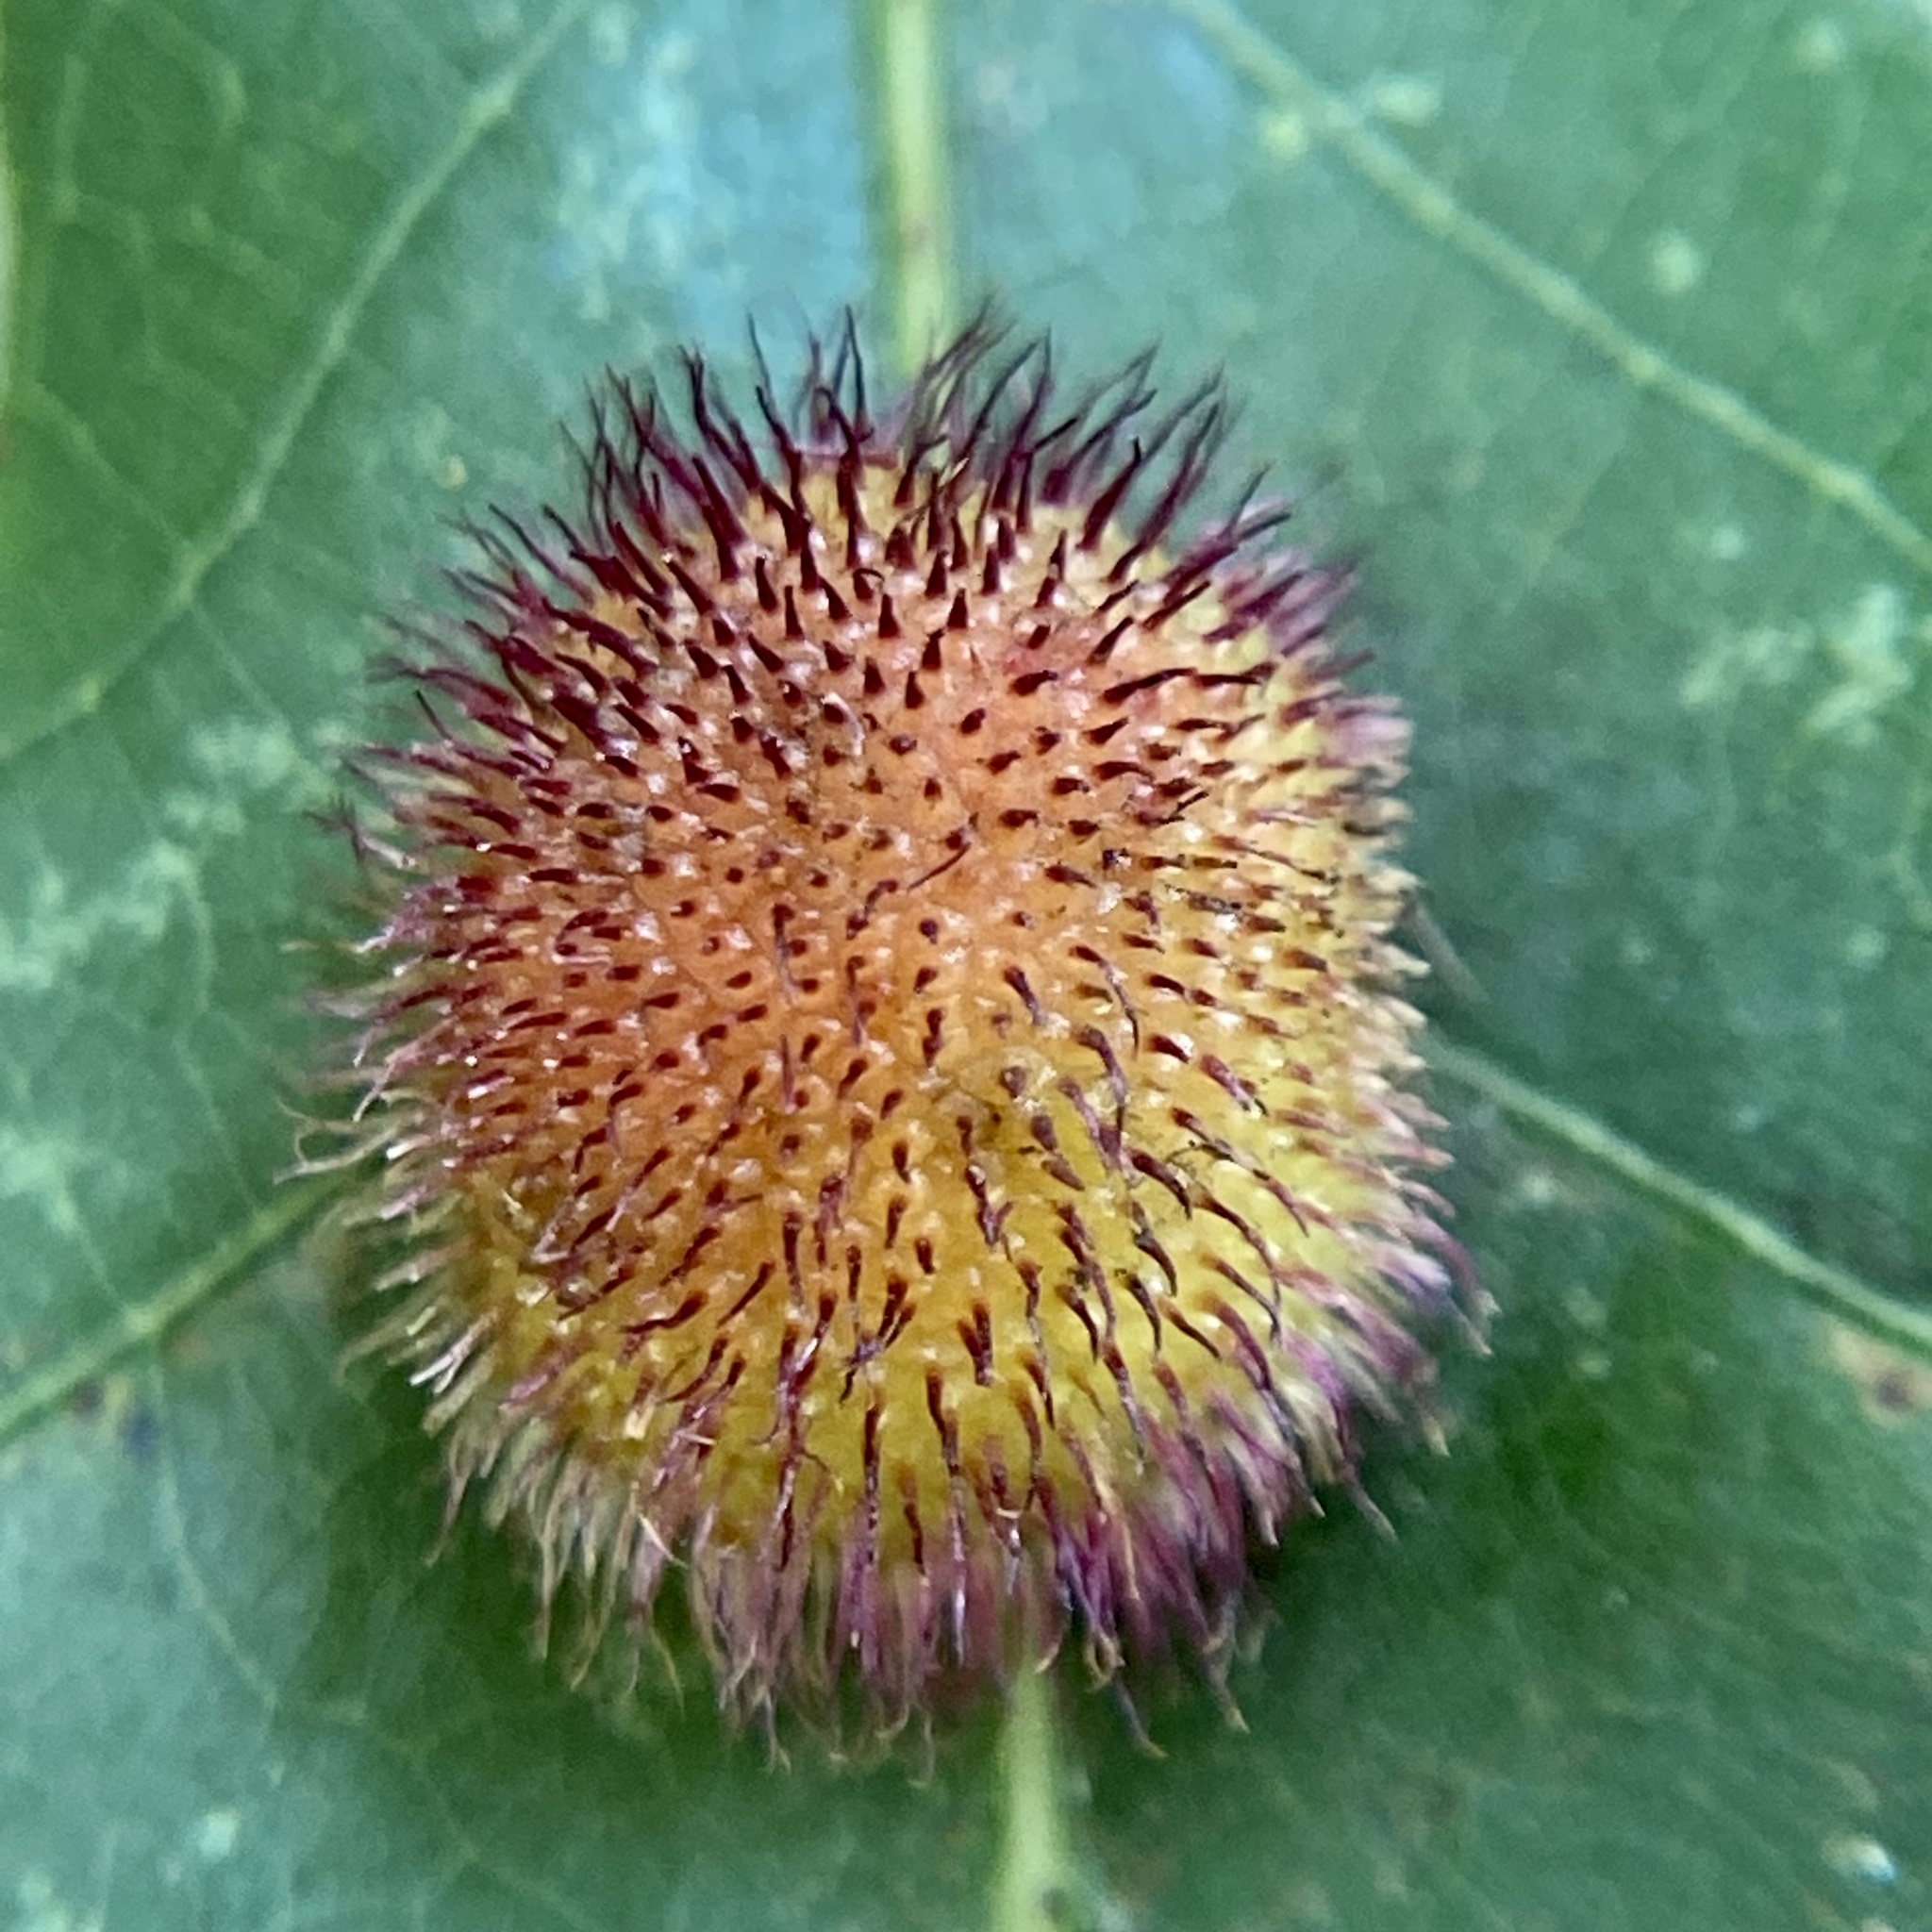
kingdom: Animalia
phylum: Arthropoda
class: Insecta
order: Hymenoptera
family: Cynipidae
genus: Acraspis
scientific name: Acraspis erinacei
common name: Hedgehog gall wasp
